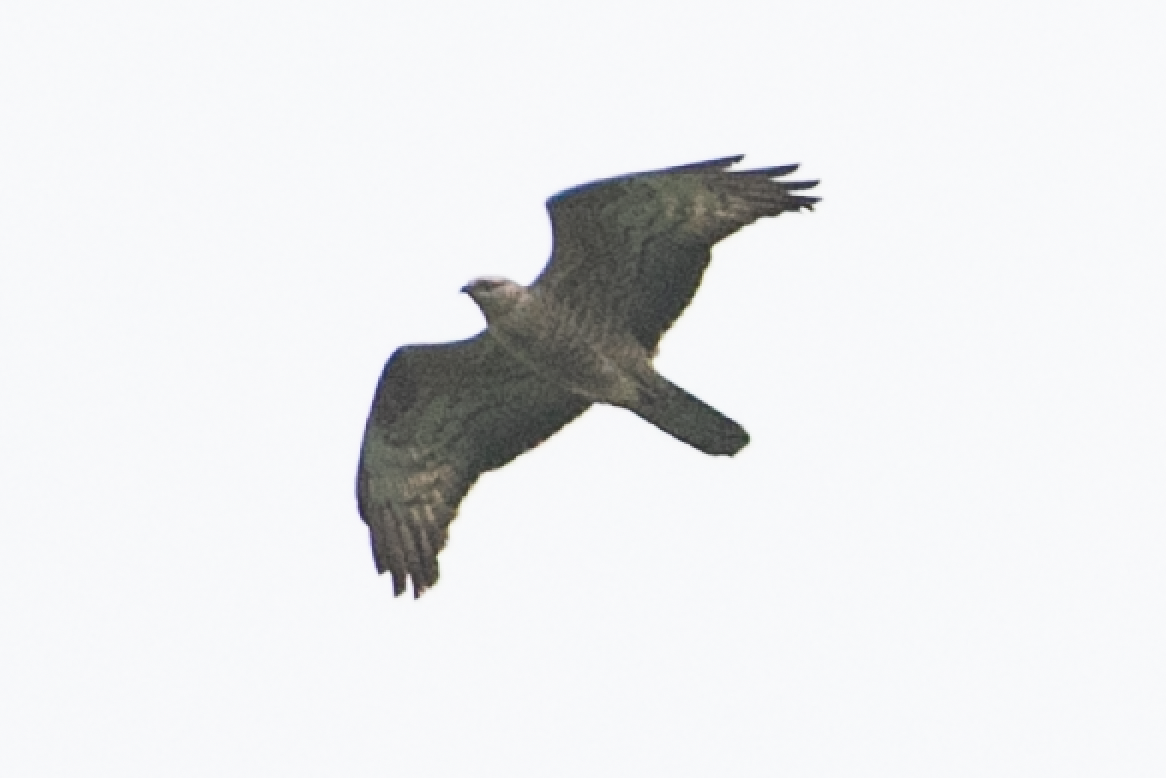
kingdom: Animalia
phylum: Chordata
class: Aves
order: Accipitriformes
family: Accipitridae
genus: Pernis
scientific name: Pernis apivorus
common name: European honey buzzard
